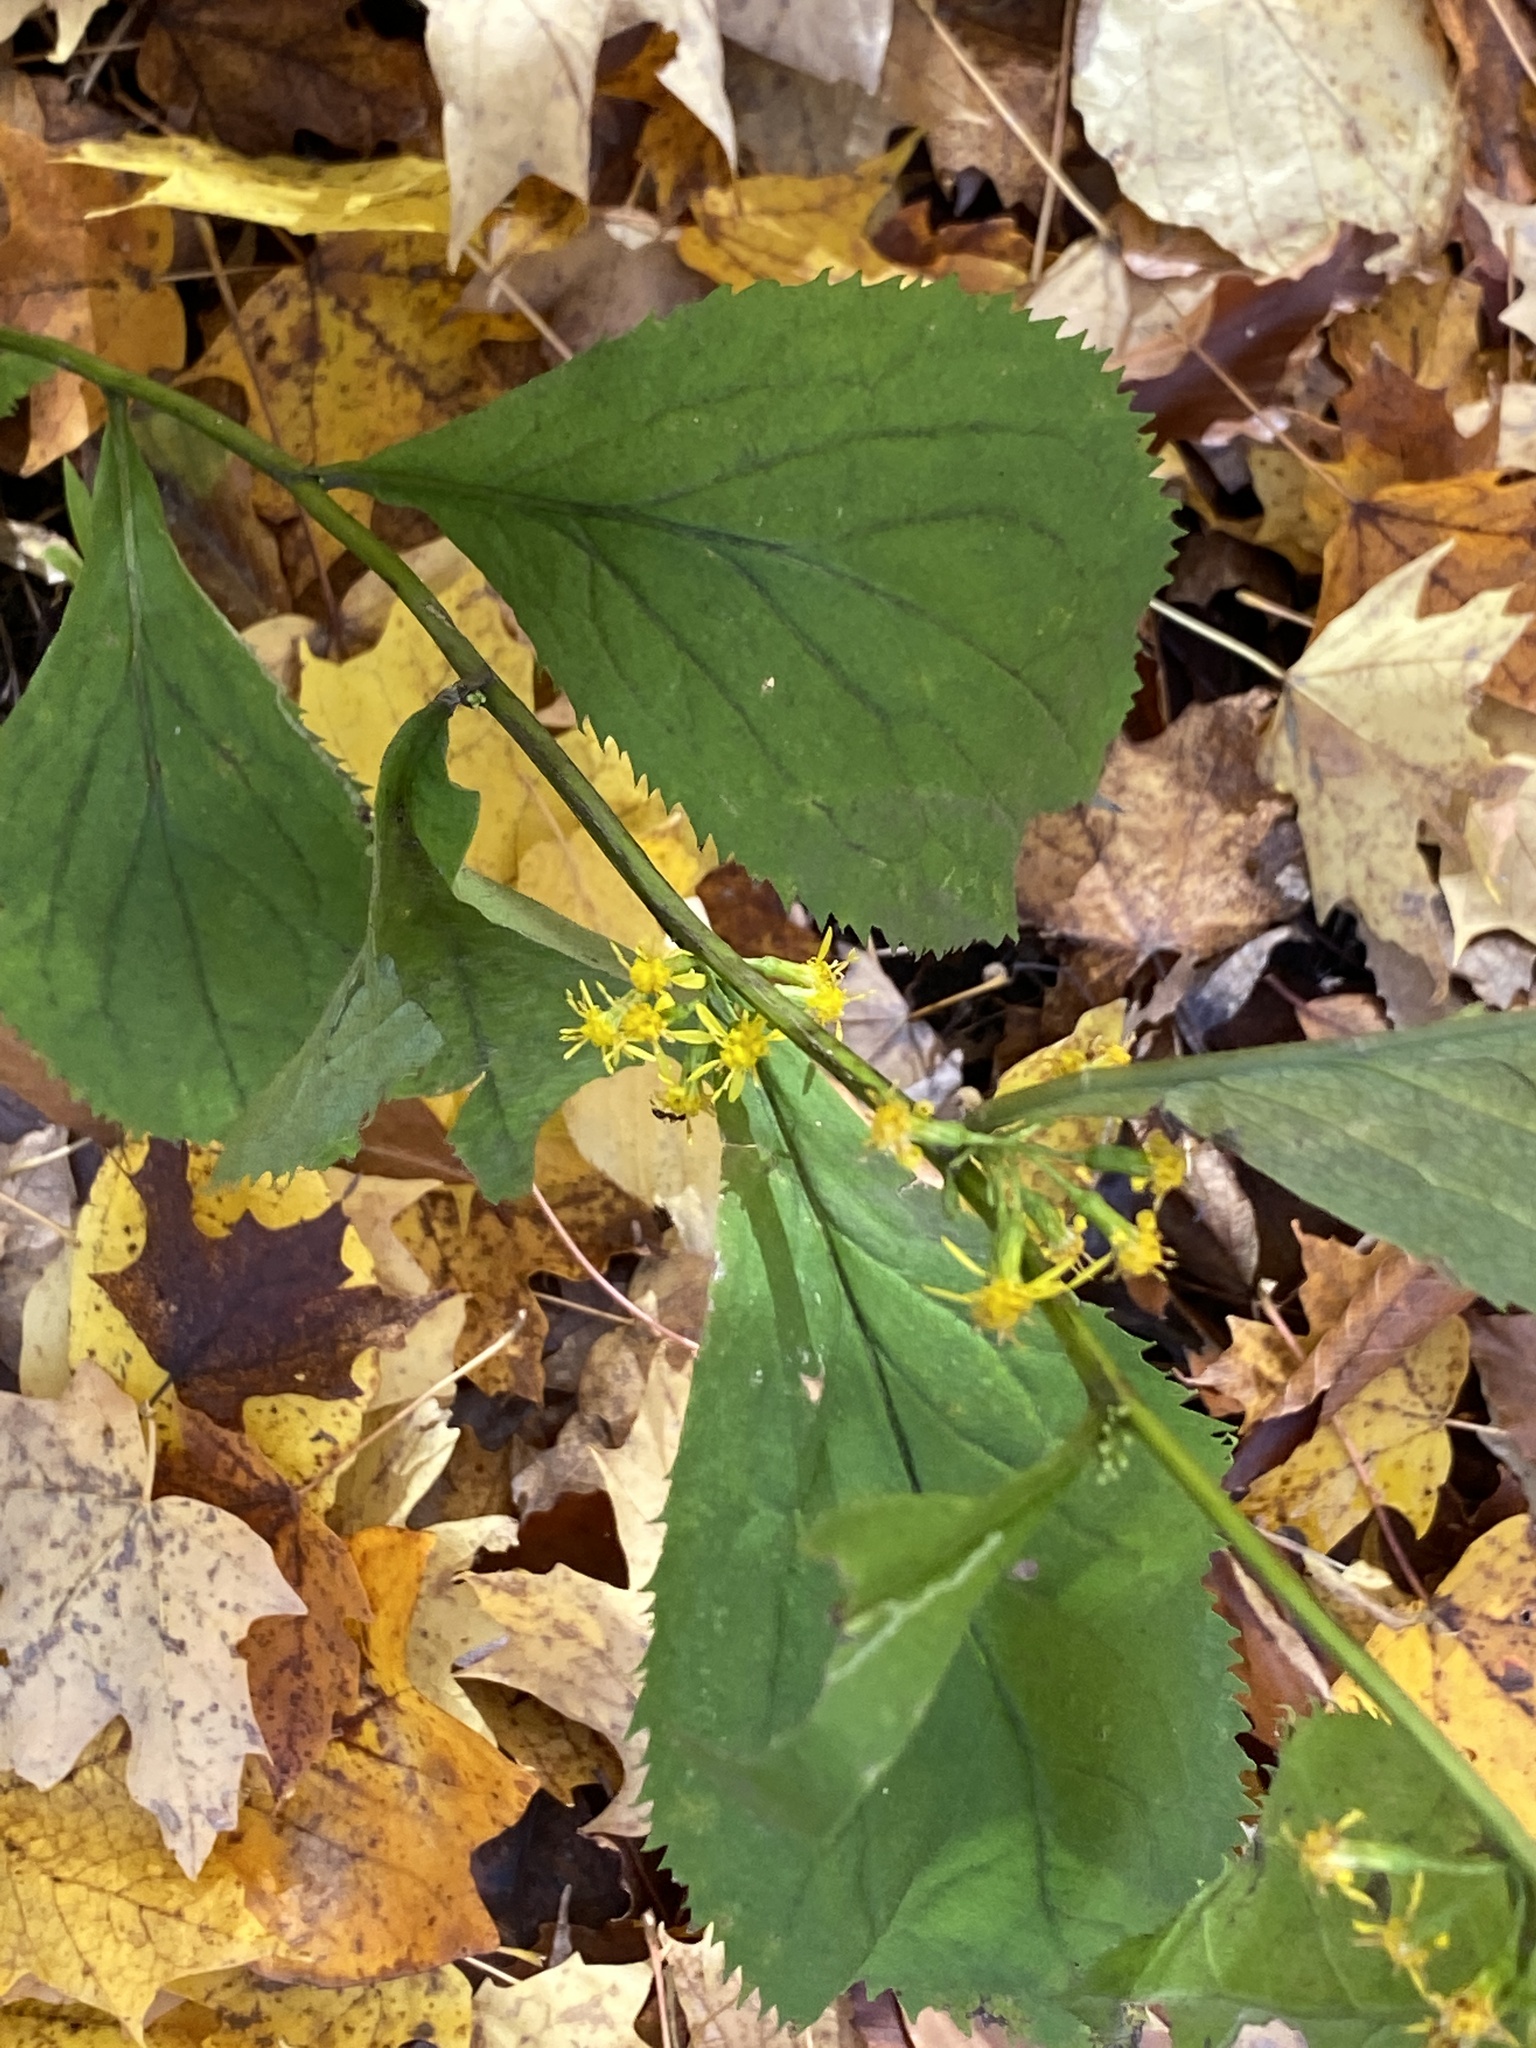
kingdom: Plantae
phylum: Tracheophyta
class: Magnoliopsida
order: Asterales
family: Asteraceae
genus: Solidago
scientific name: Solidago flexicaulis
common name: Zig-zag goldenrod
